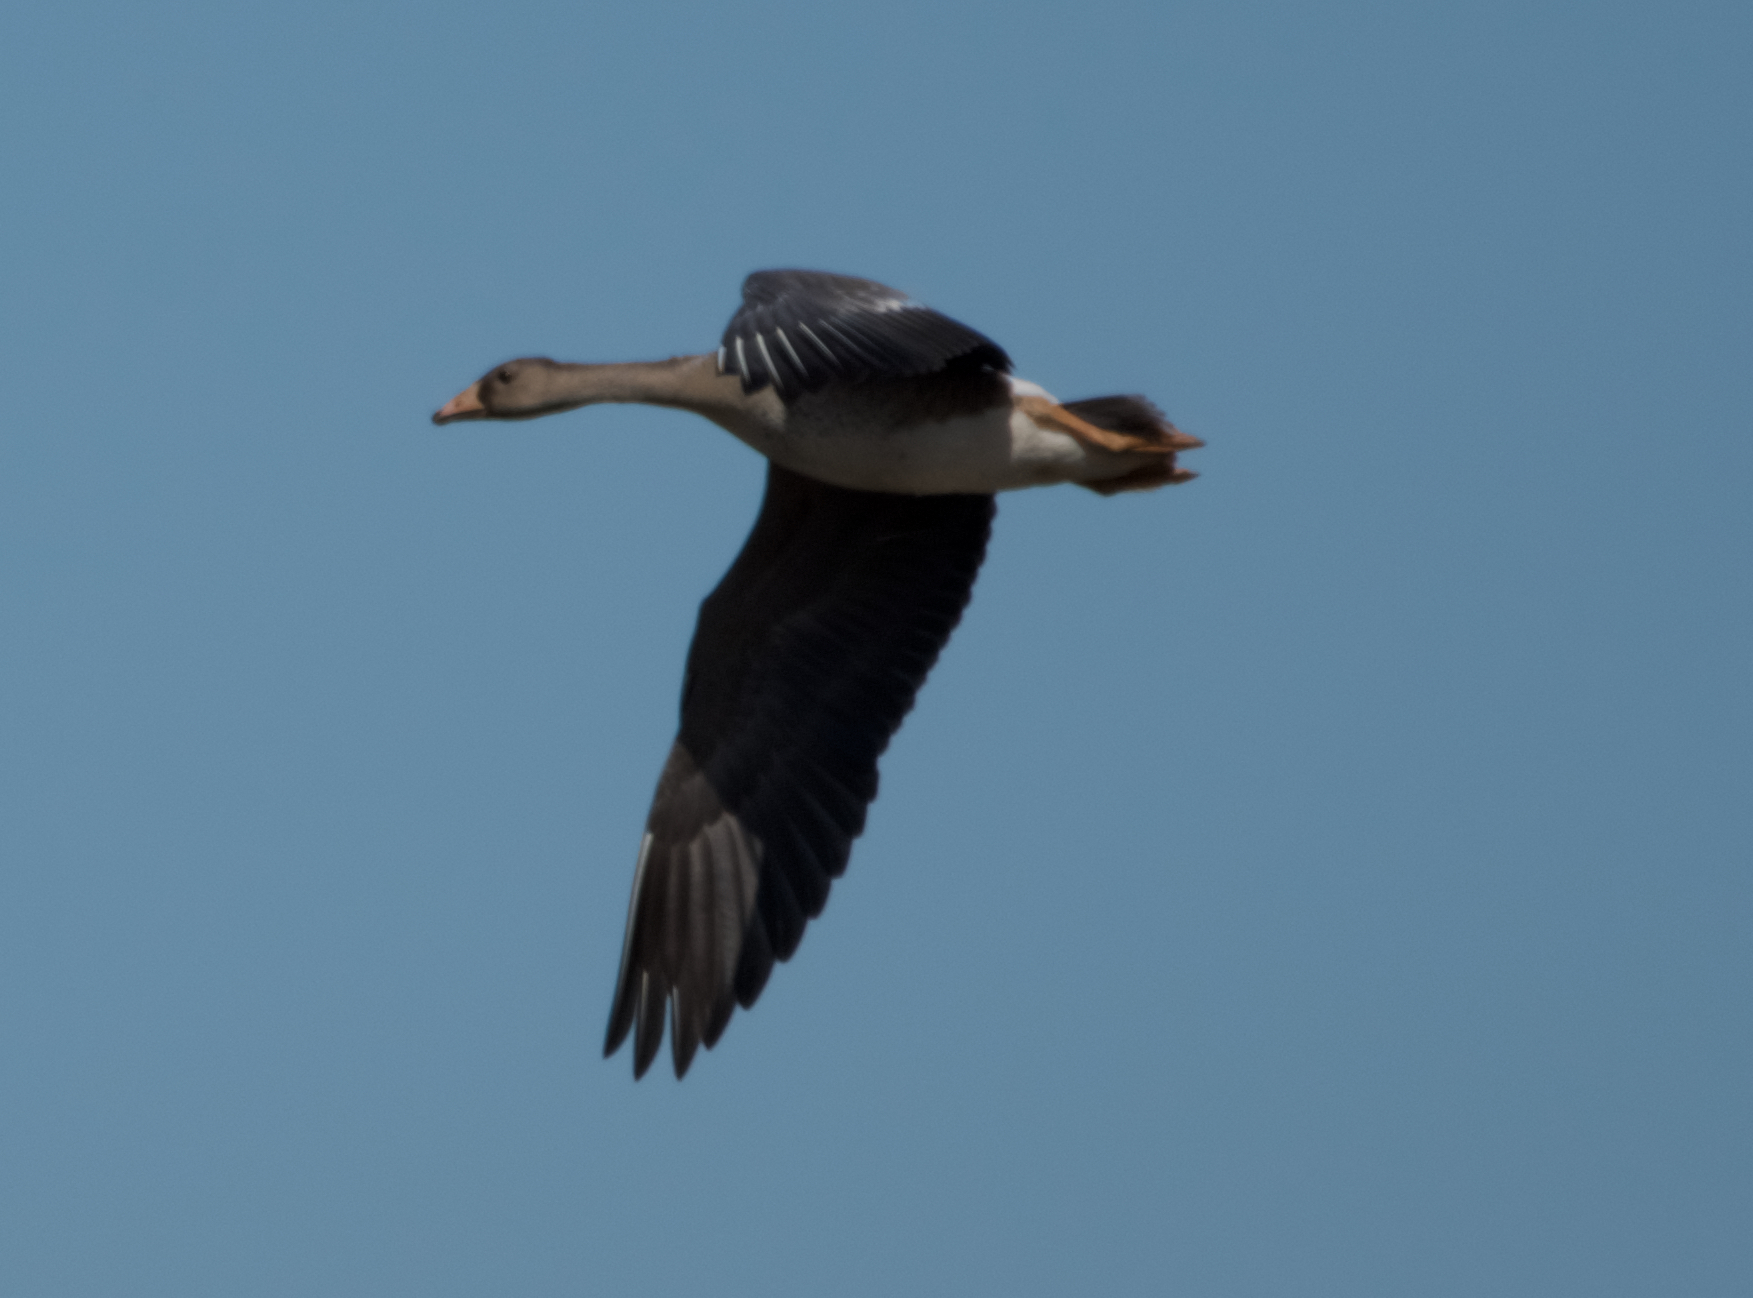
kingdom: Animalia
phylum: Chordata
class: Aves
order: Anseriformes
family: Anatidae
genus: Anser
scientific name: Anser albifrons
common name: Greater white-fronted goose
